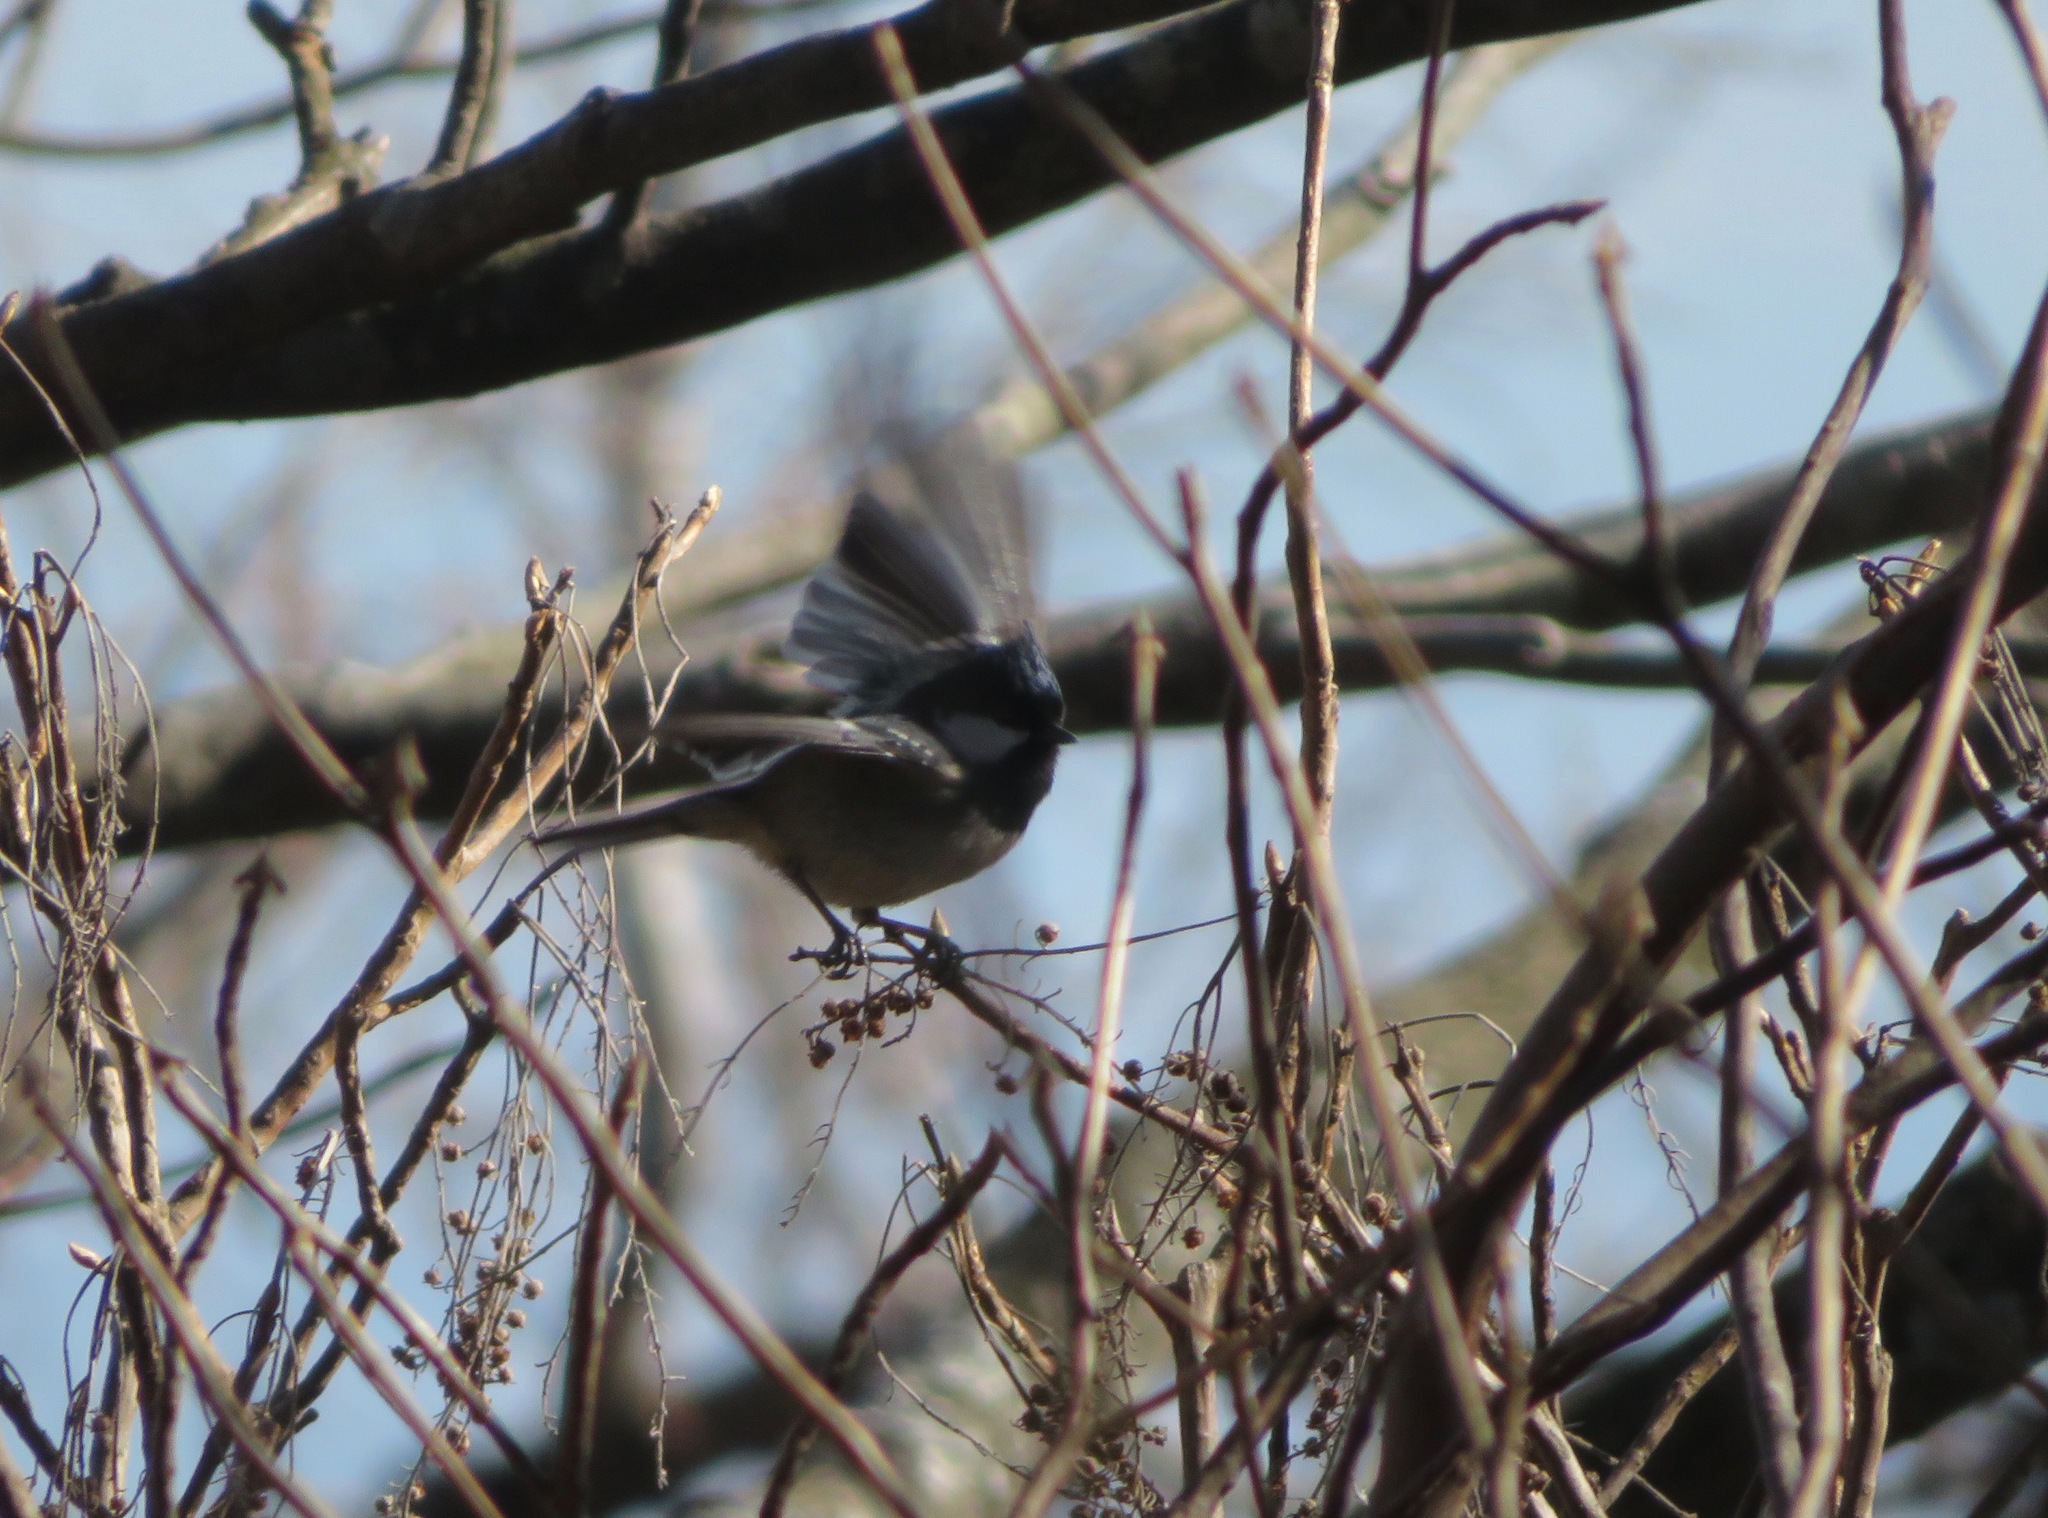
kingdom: Animalia
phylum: Chordata
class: Aves
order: Passeriformes
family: Paridae
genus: Periparus
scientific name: Periparus ater
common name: Coal tit
